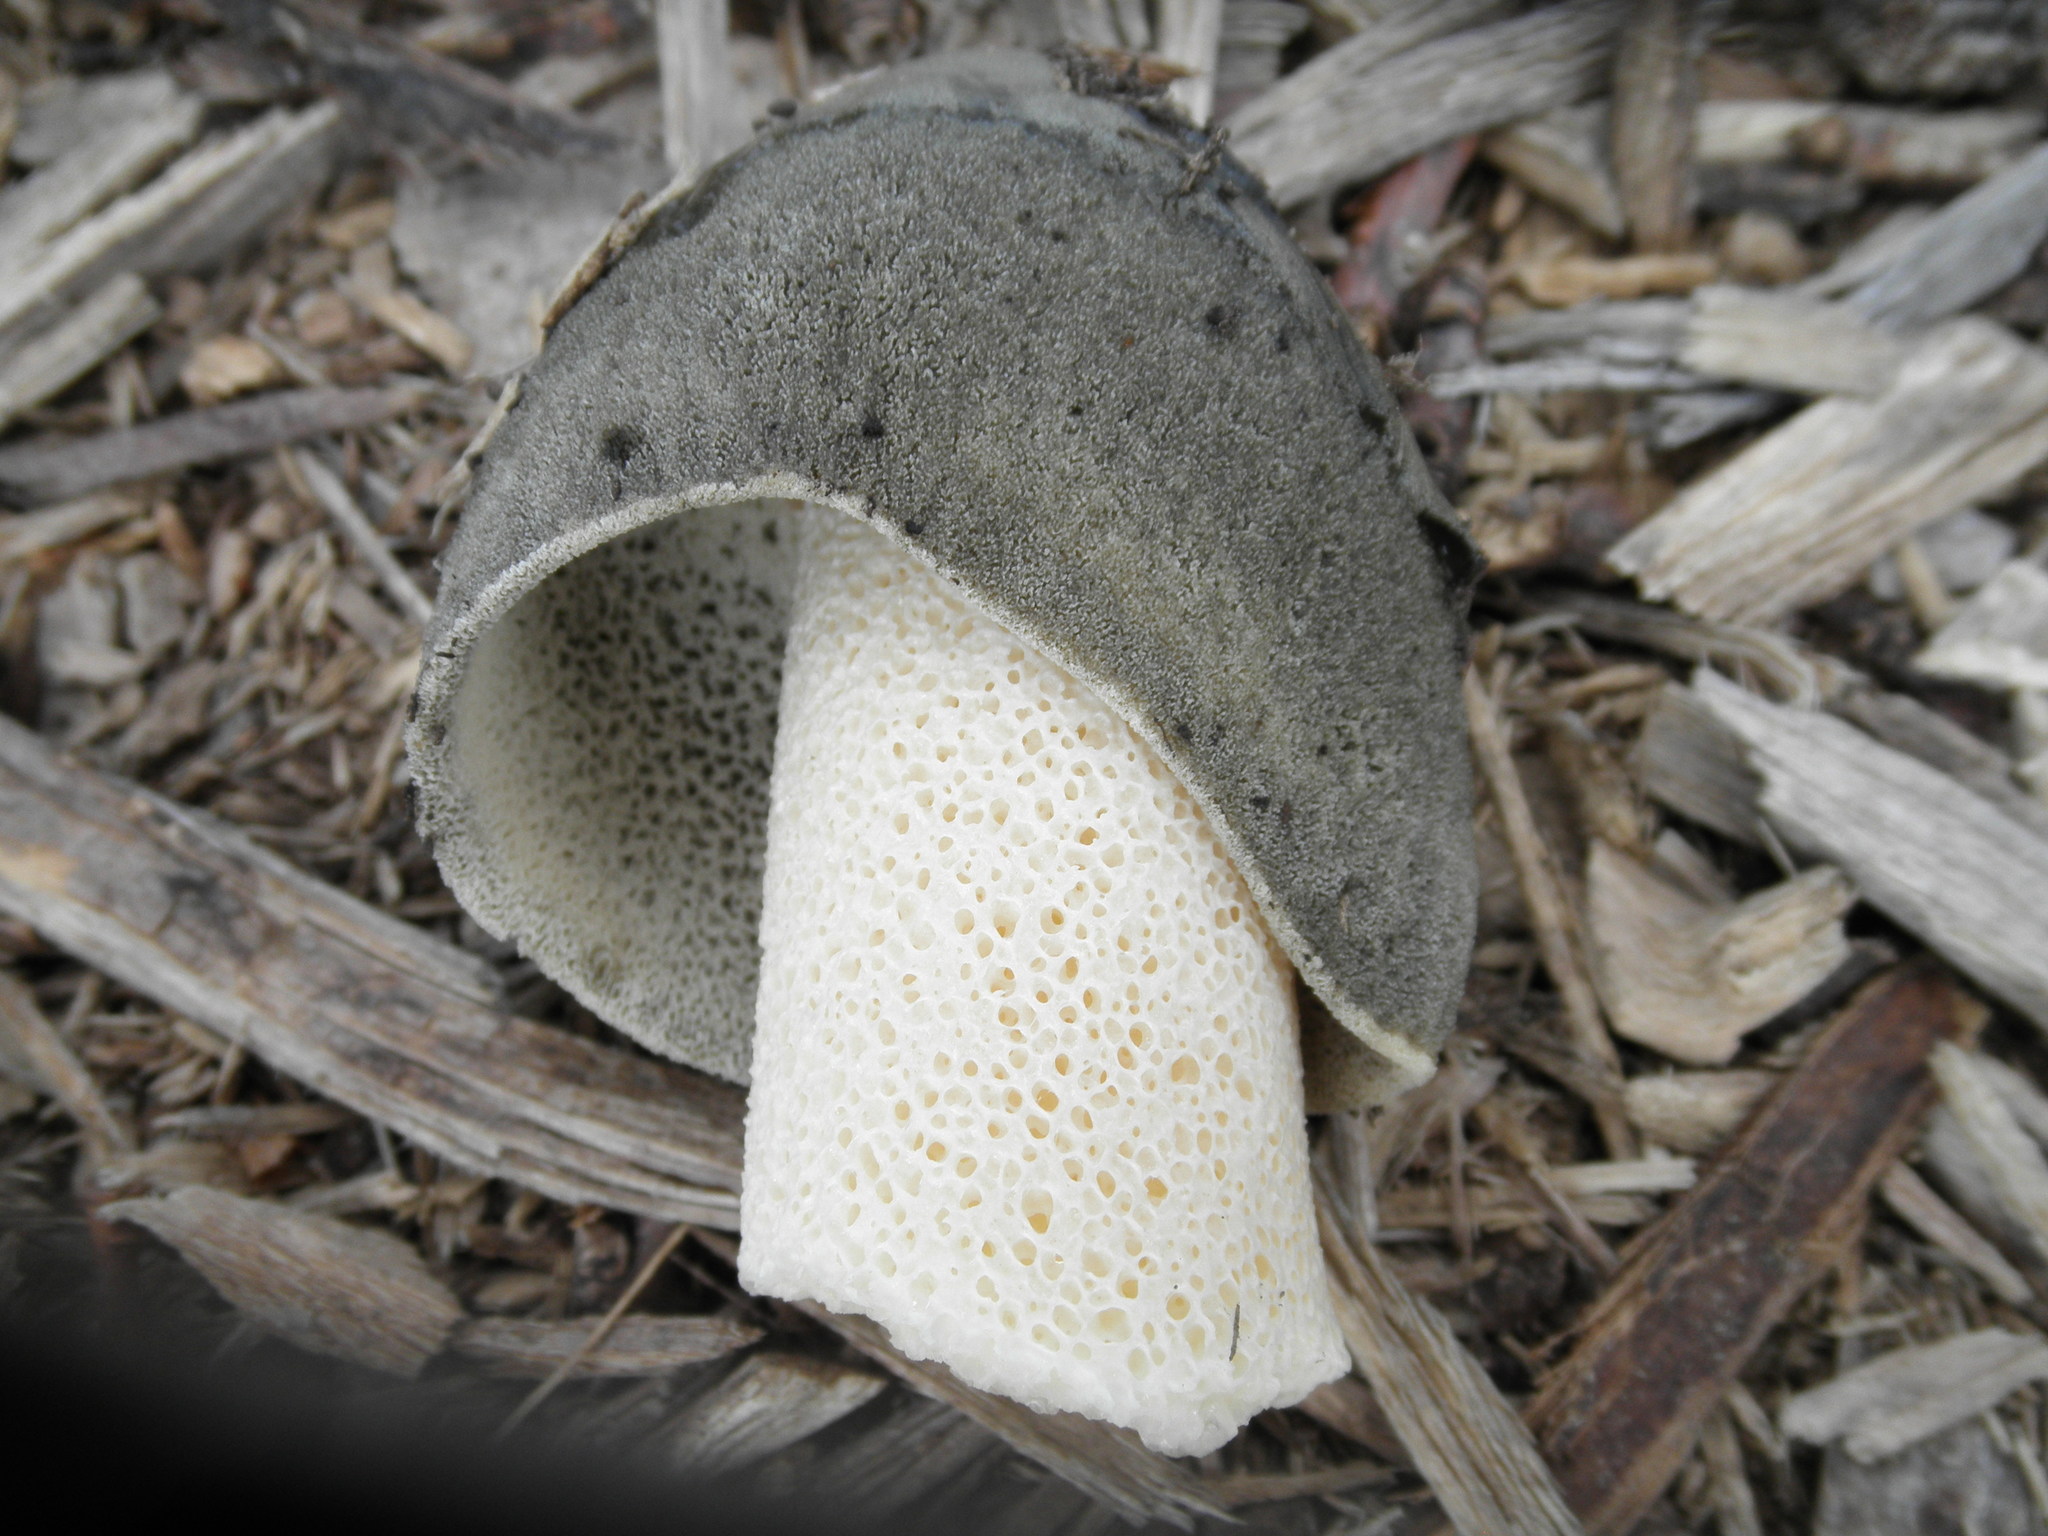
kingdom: Fungi
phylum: Basidiomycota
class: Agaricomycetes
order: Phallales
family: Phallaceae
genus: Phallus
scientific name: Phallus ravenelii
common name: Ravenel's stinkhorn
